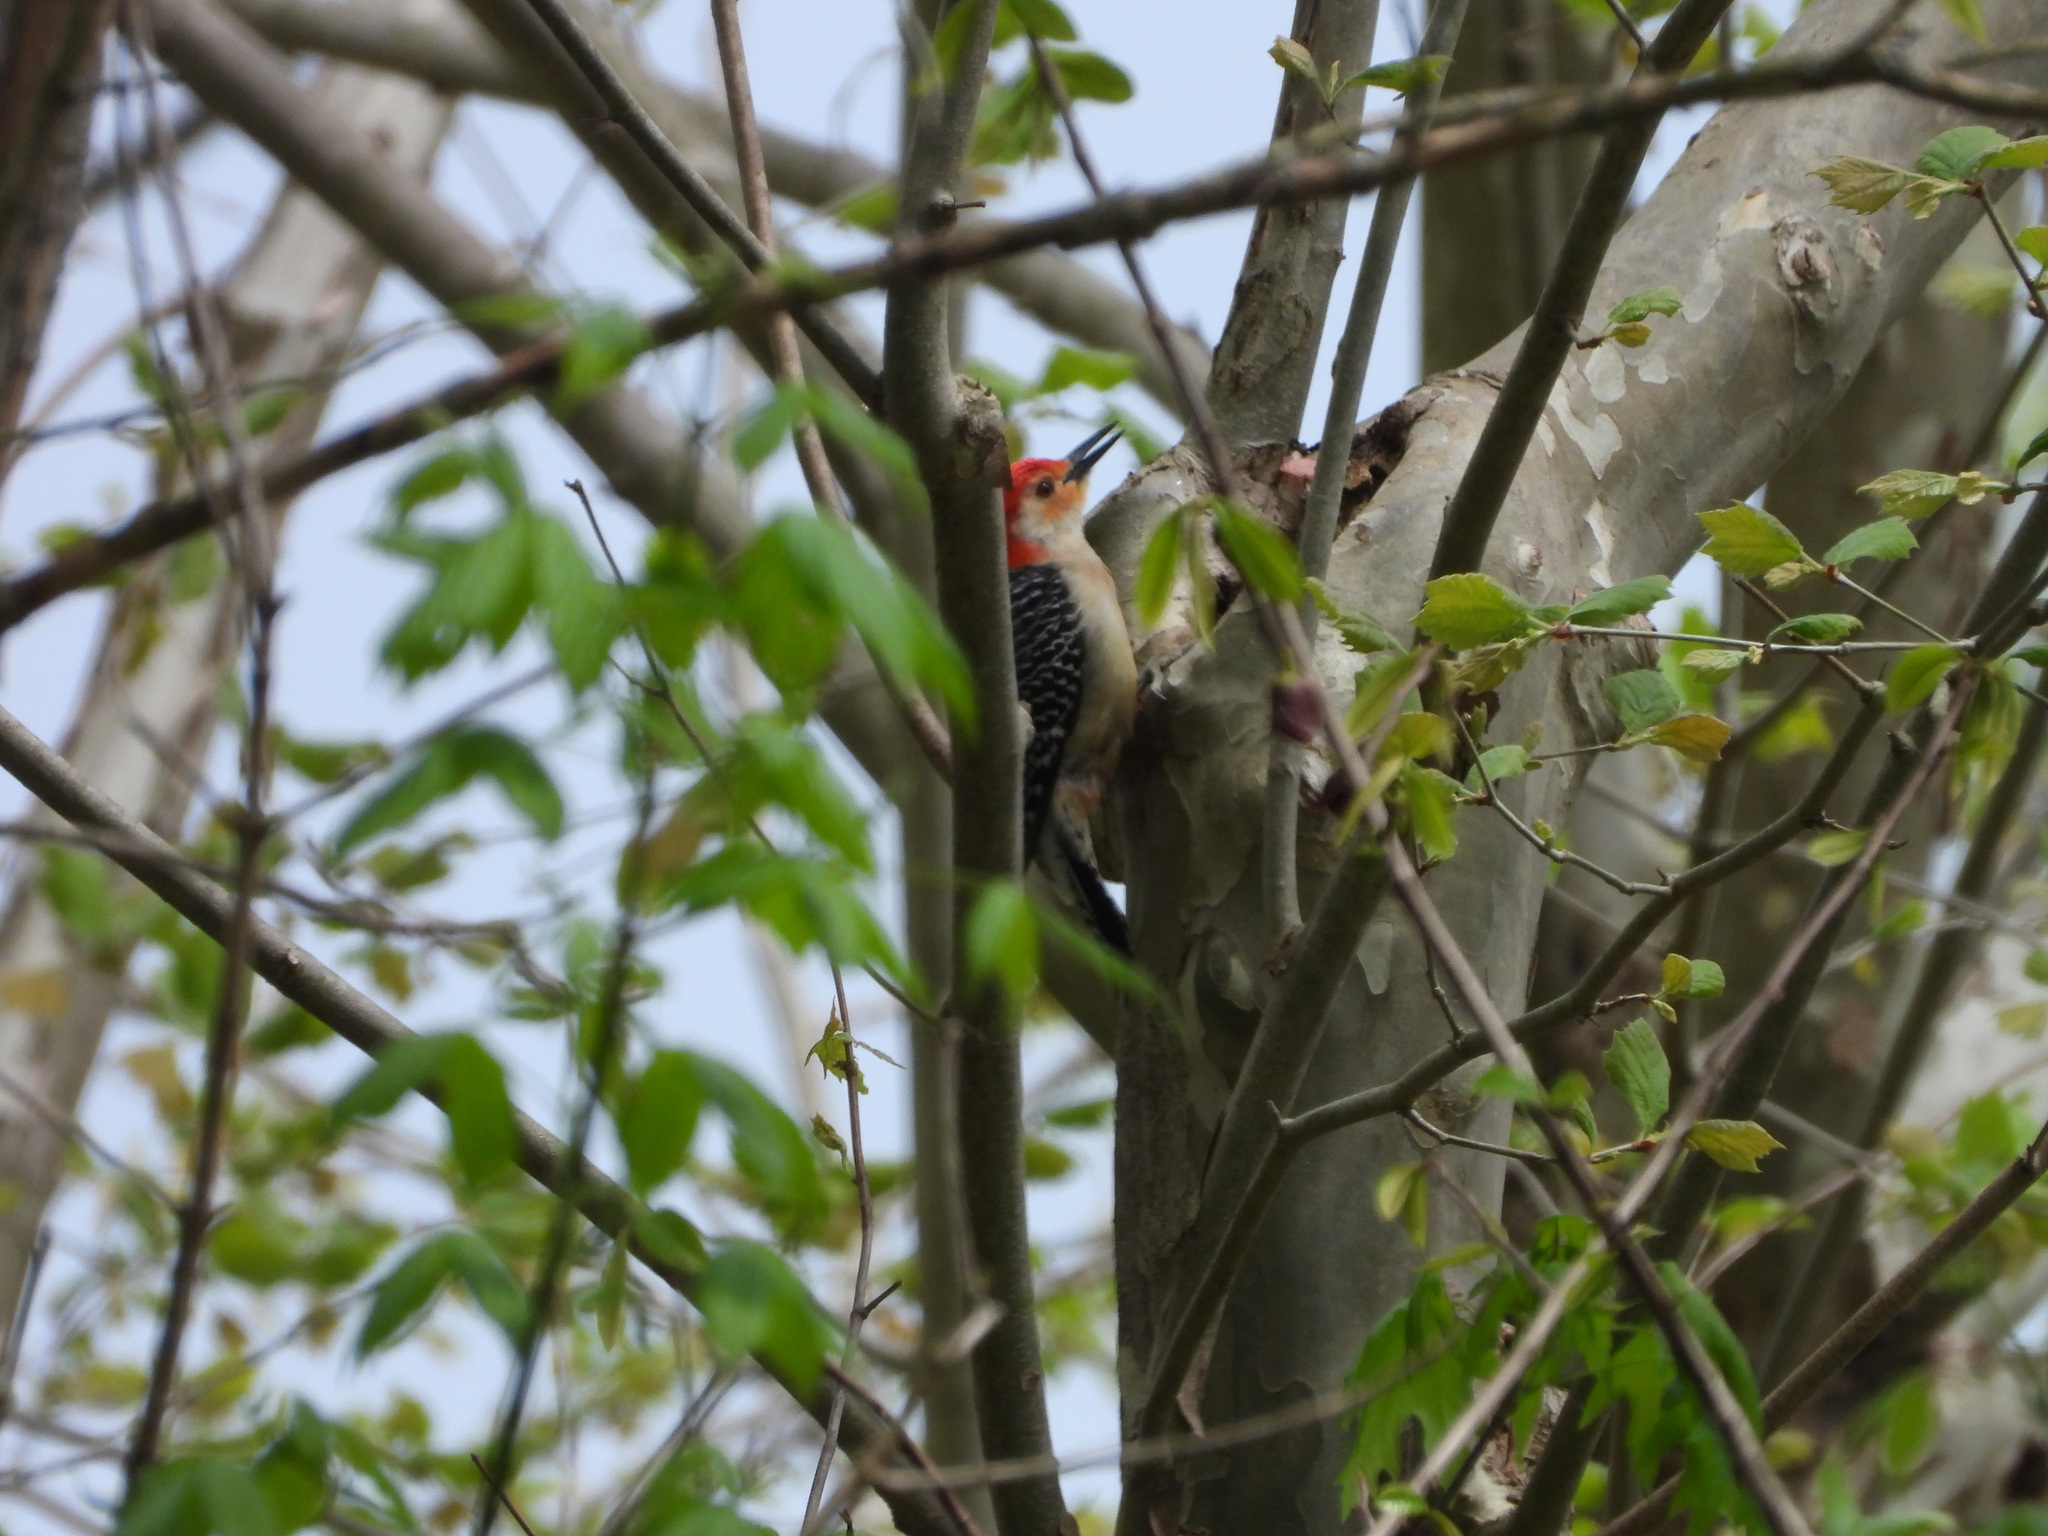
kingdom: Animalia
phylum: Chordata
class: Aves
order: Piciformes
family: Picidae
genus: Melanerpes
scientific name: Melanerpes carolinus
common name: Red-bellied woodpecker
